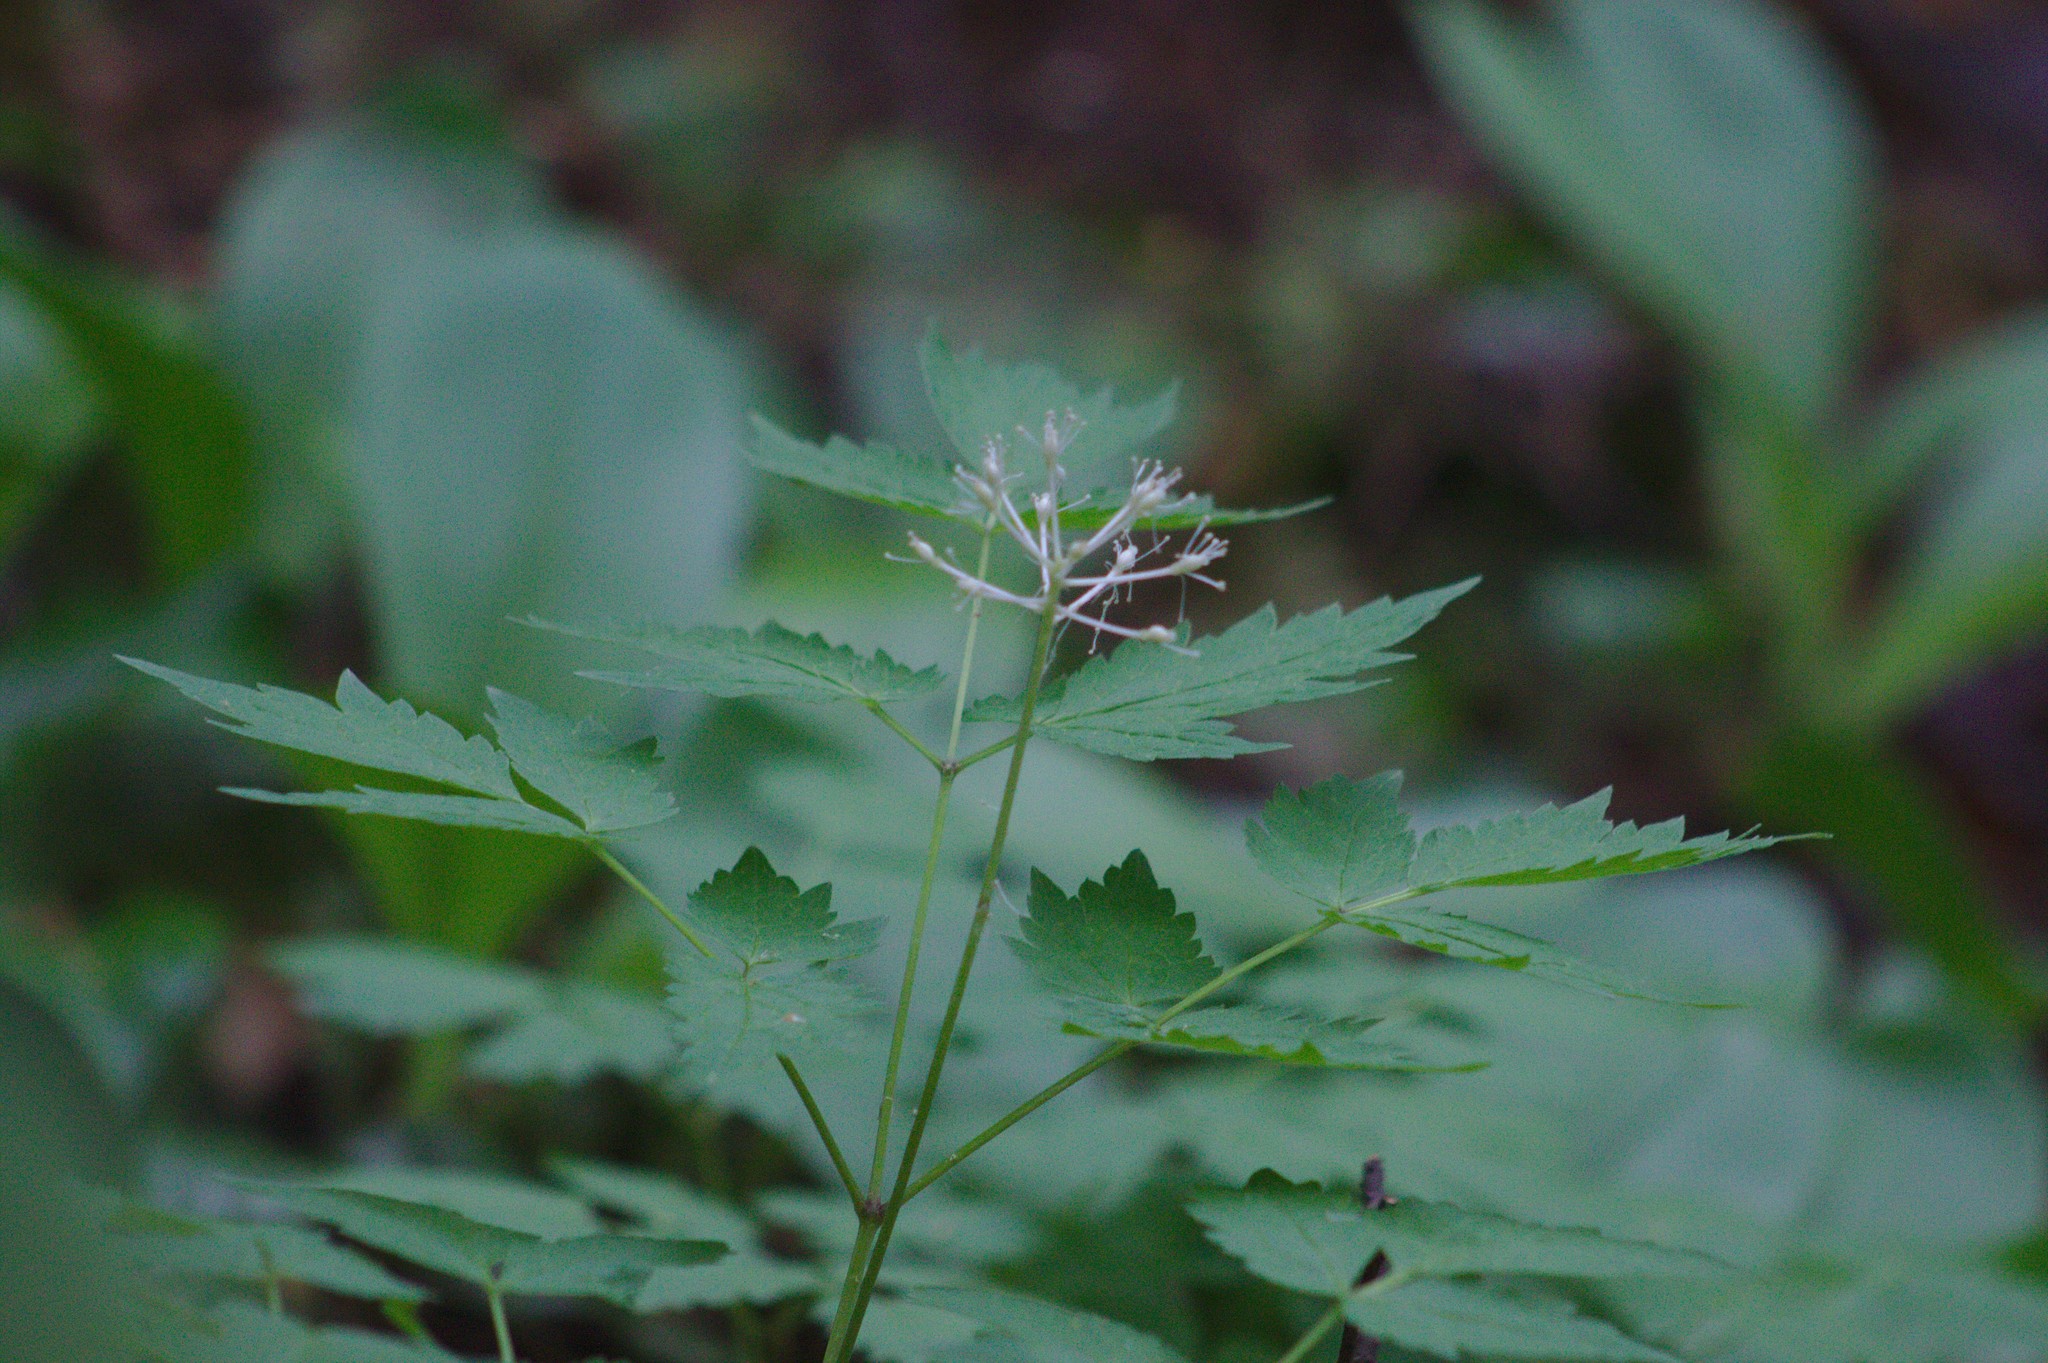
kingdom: Plantae
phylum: Tracheophyta
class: Magnoliopsida
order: Ranunculales
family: Ranunculaceae
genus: Actaea
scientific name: Actaea rubra
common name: Red baneberry
